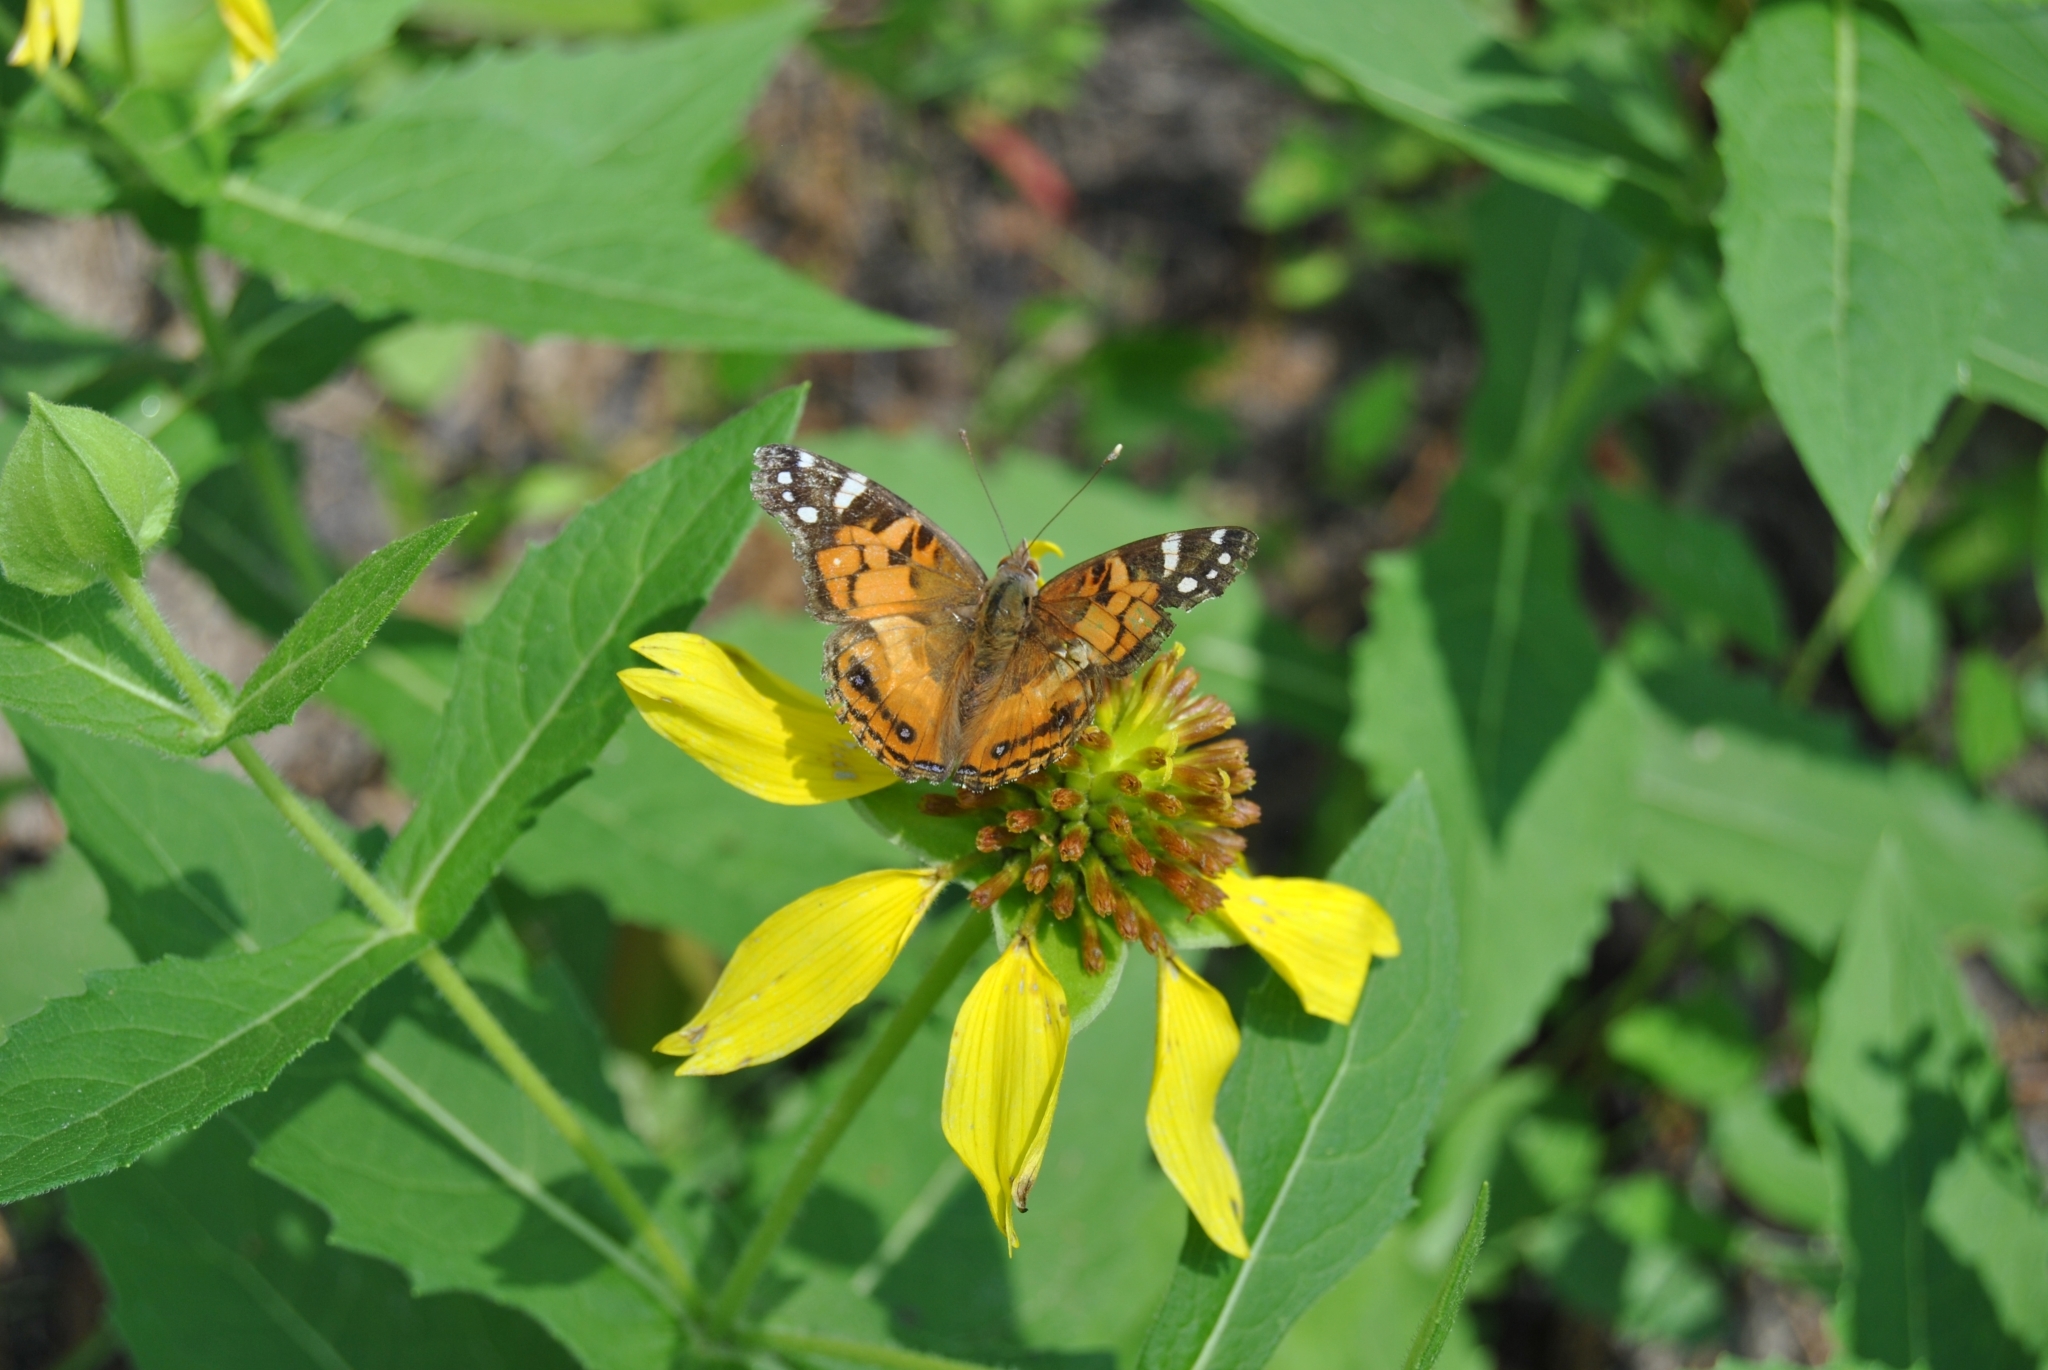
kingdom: Animalia
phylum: Arthropoda
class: Insecta
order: Lepidoptera
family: Nymphalidae
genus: Vanessa
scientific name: Vanessa virginiensis
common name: American lady
